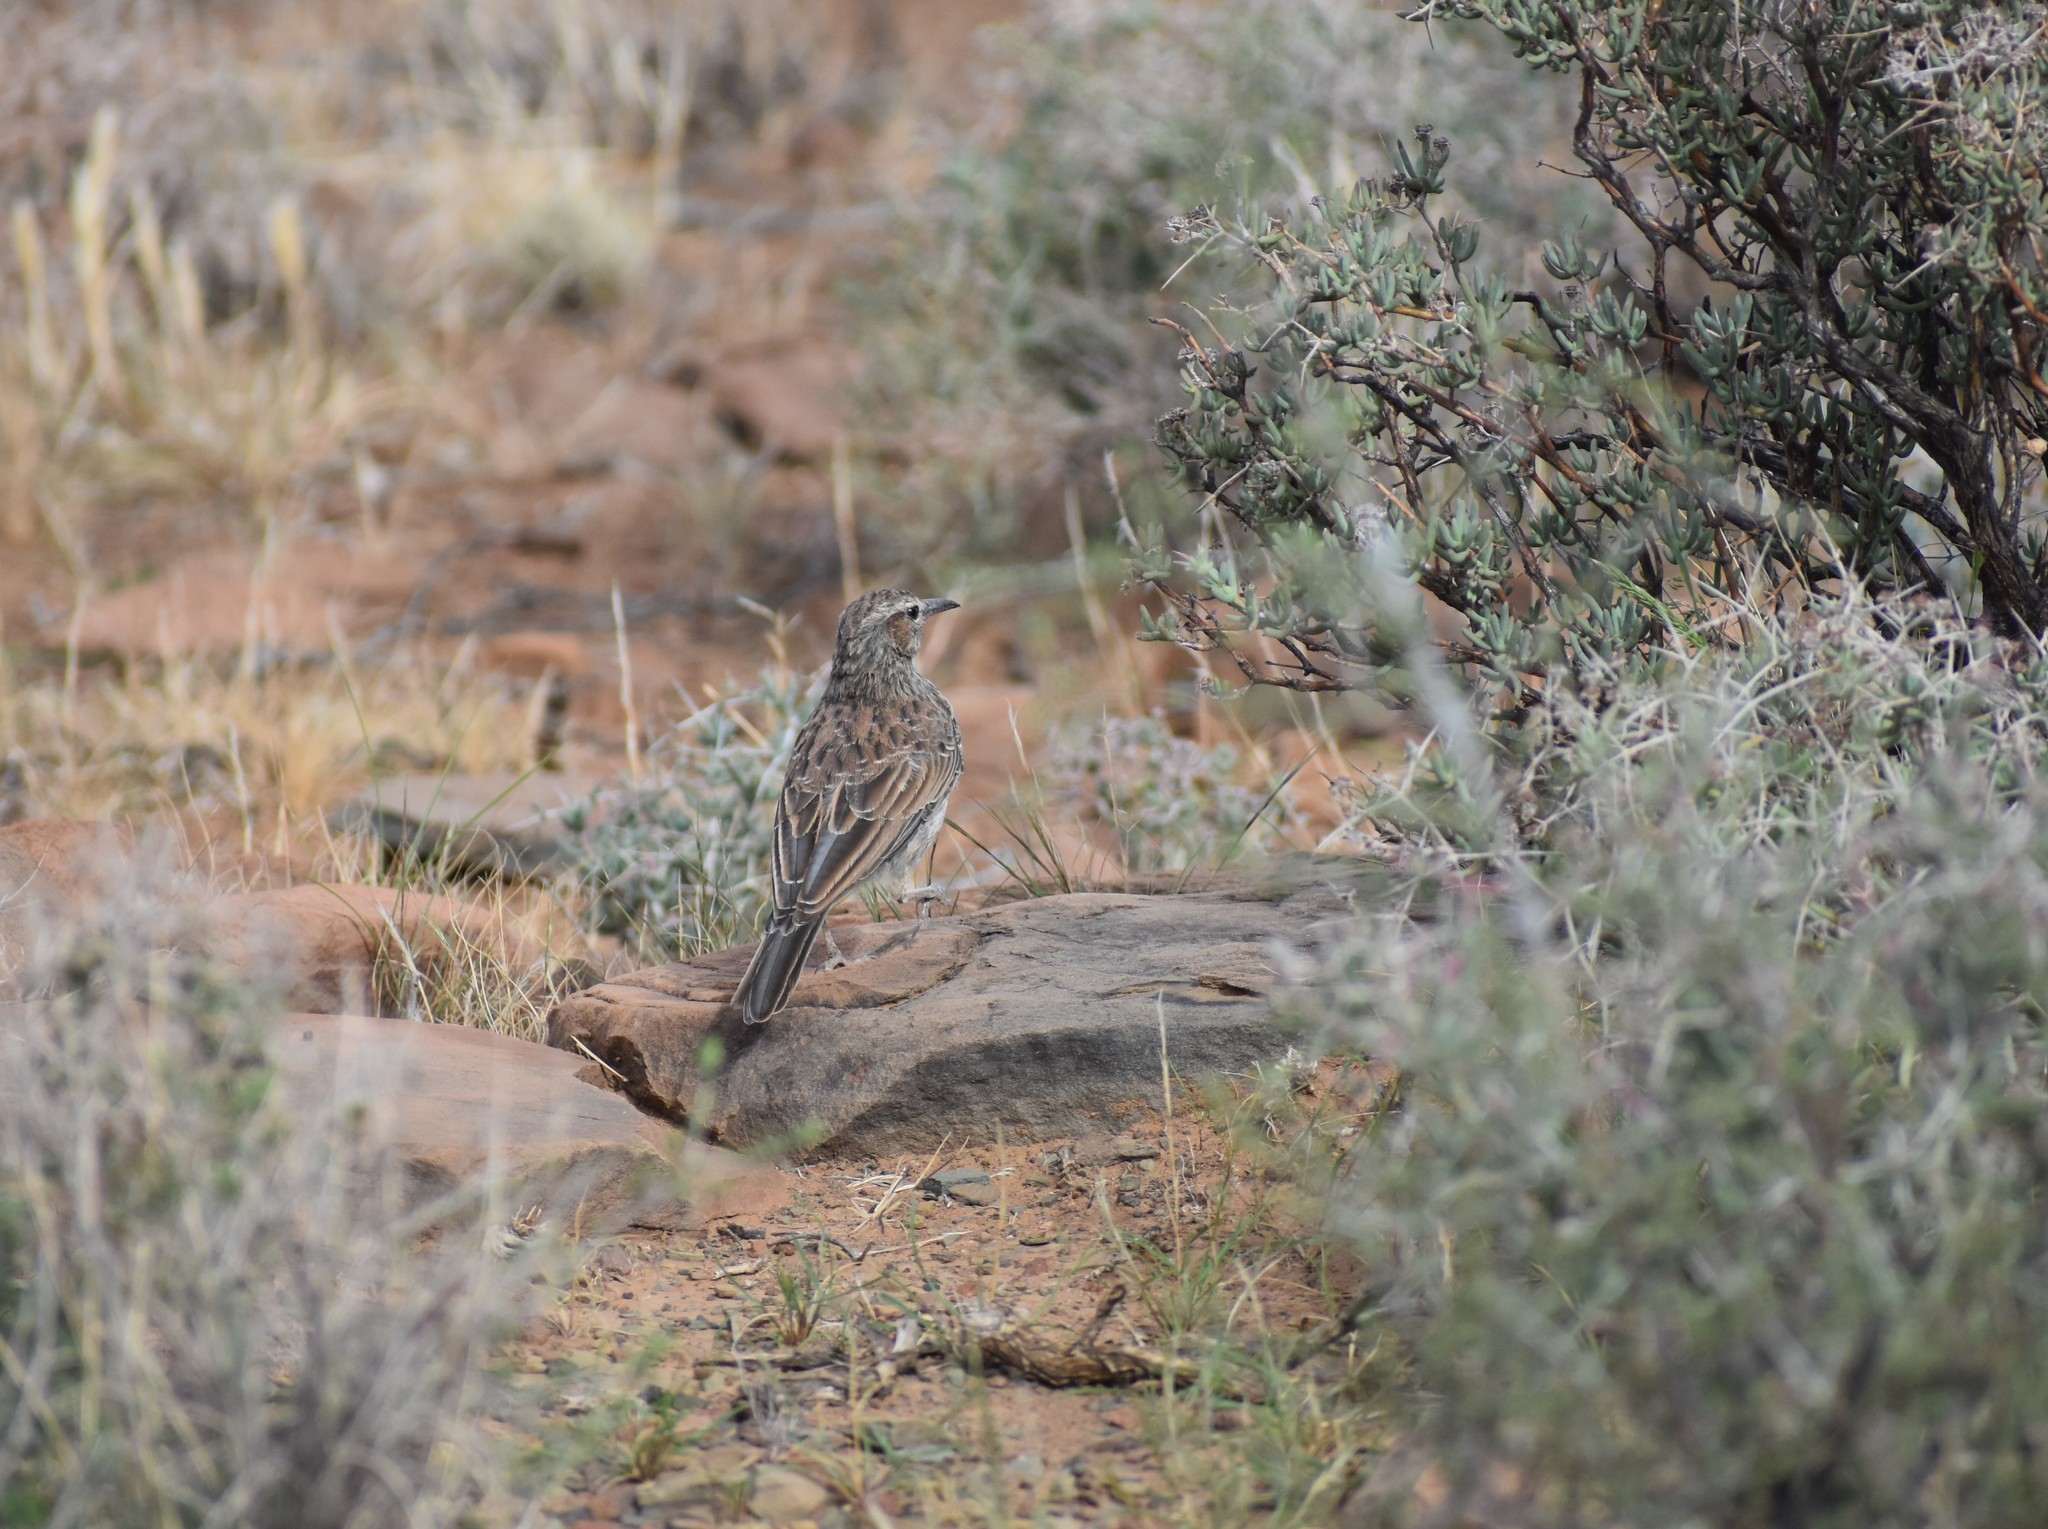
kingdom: Animalia
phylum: Chordata
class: Aves
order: Passeriformes
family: Alaudidae
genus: Certhilauda
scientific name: Certhilauda subcoronata
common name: Karoo long-billed lark
